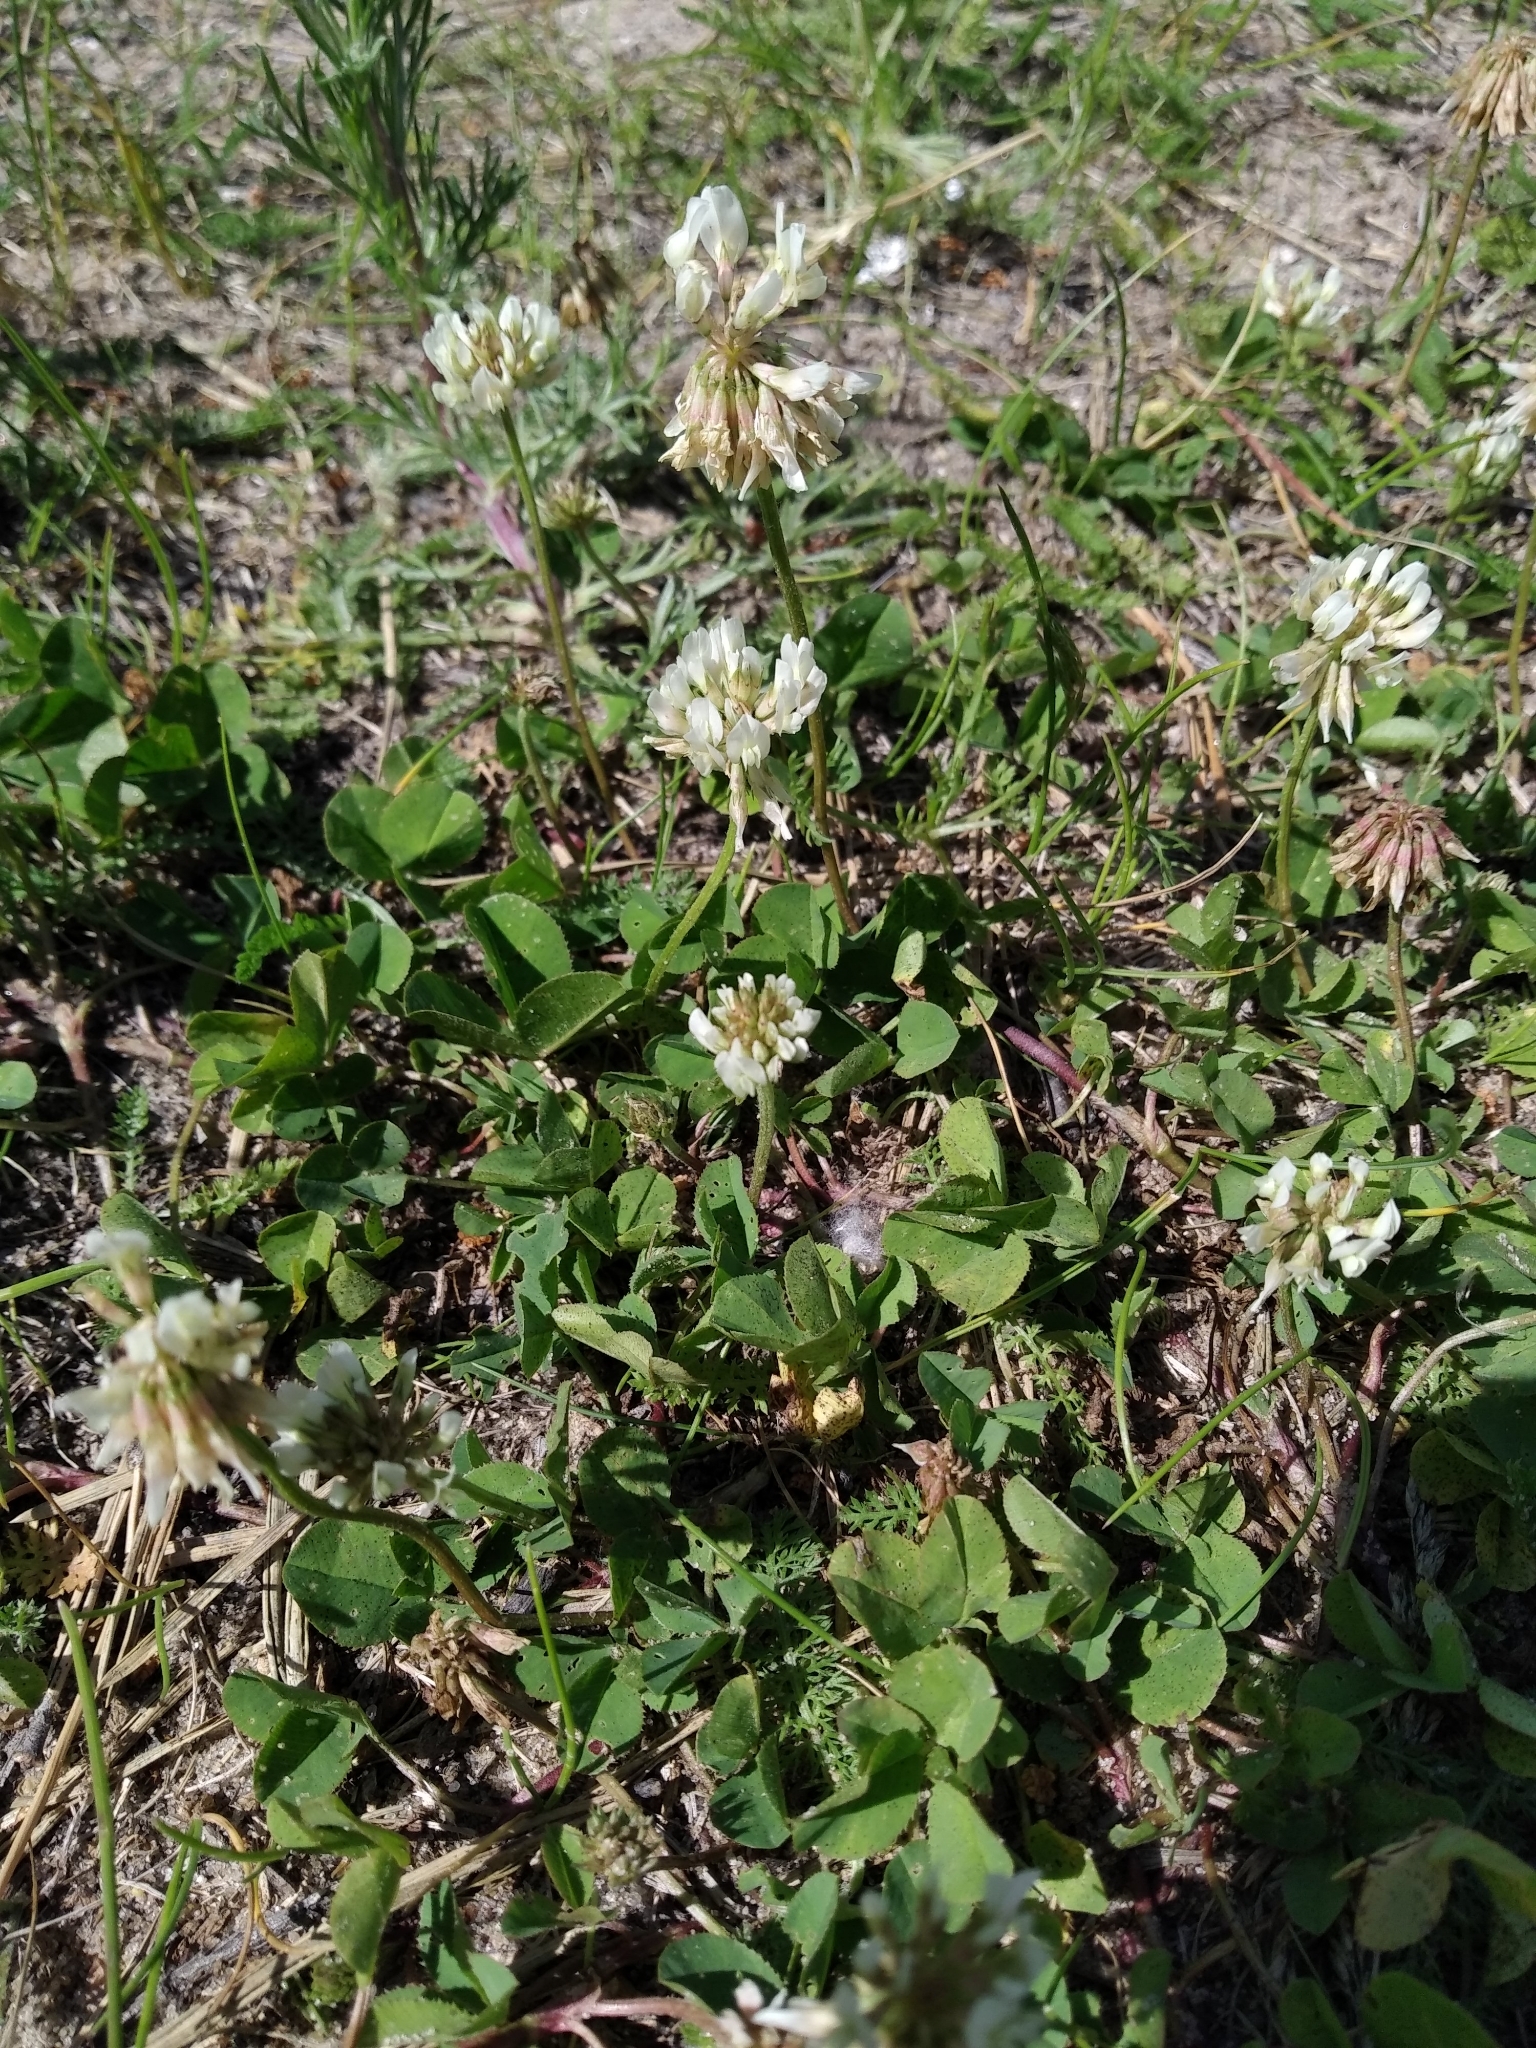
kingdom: Plantae
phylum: Tracheophyta
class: Magnoliopsida
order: Fabales
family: Fabaceae
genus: Trifolium
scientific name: Trifolium repens
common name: White clover
